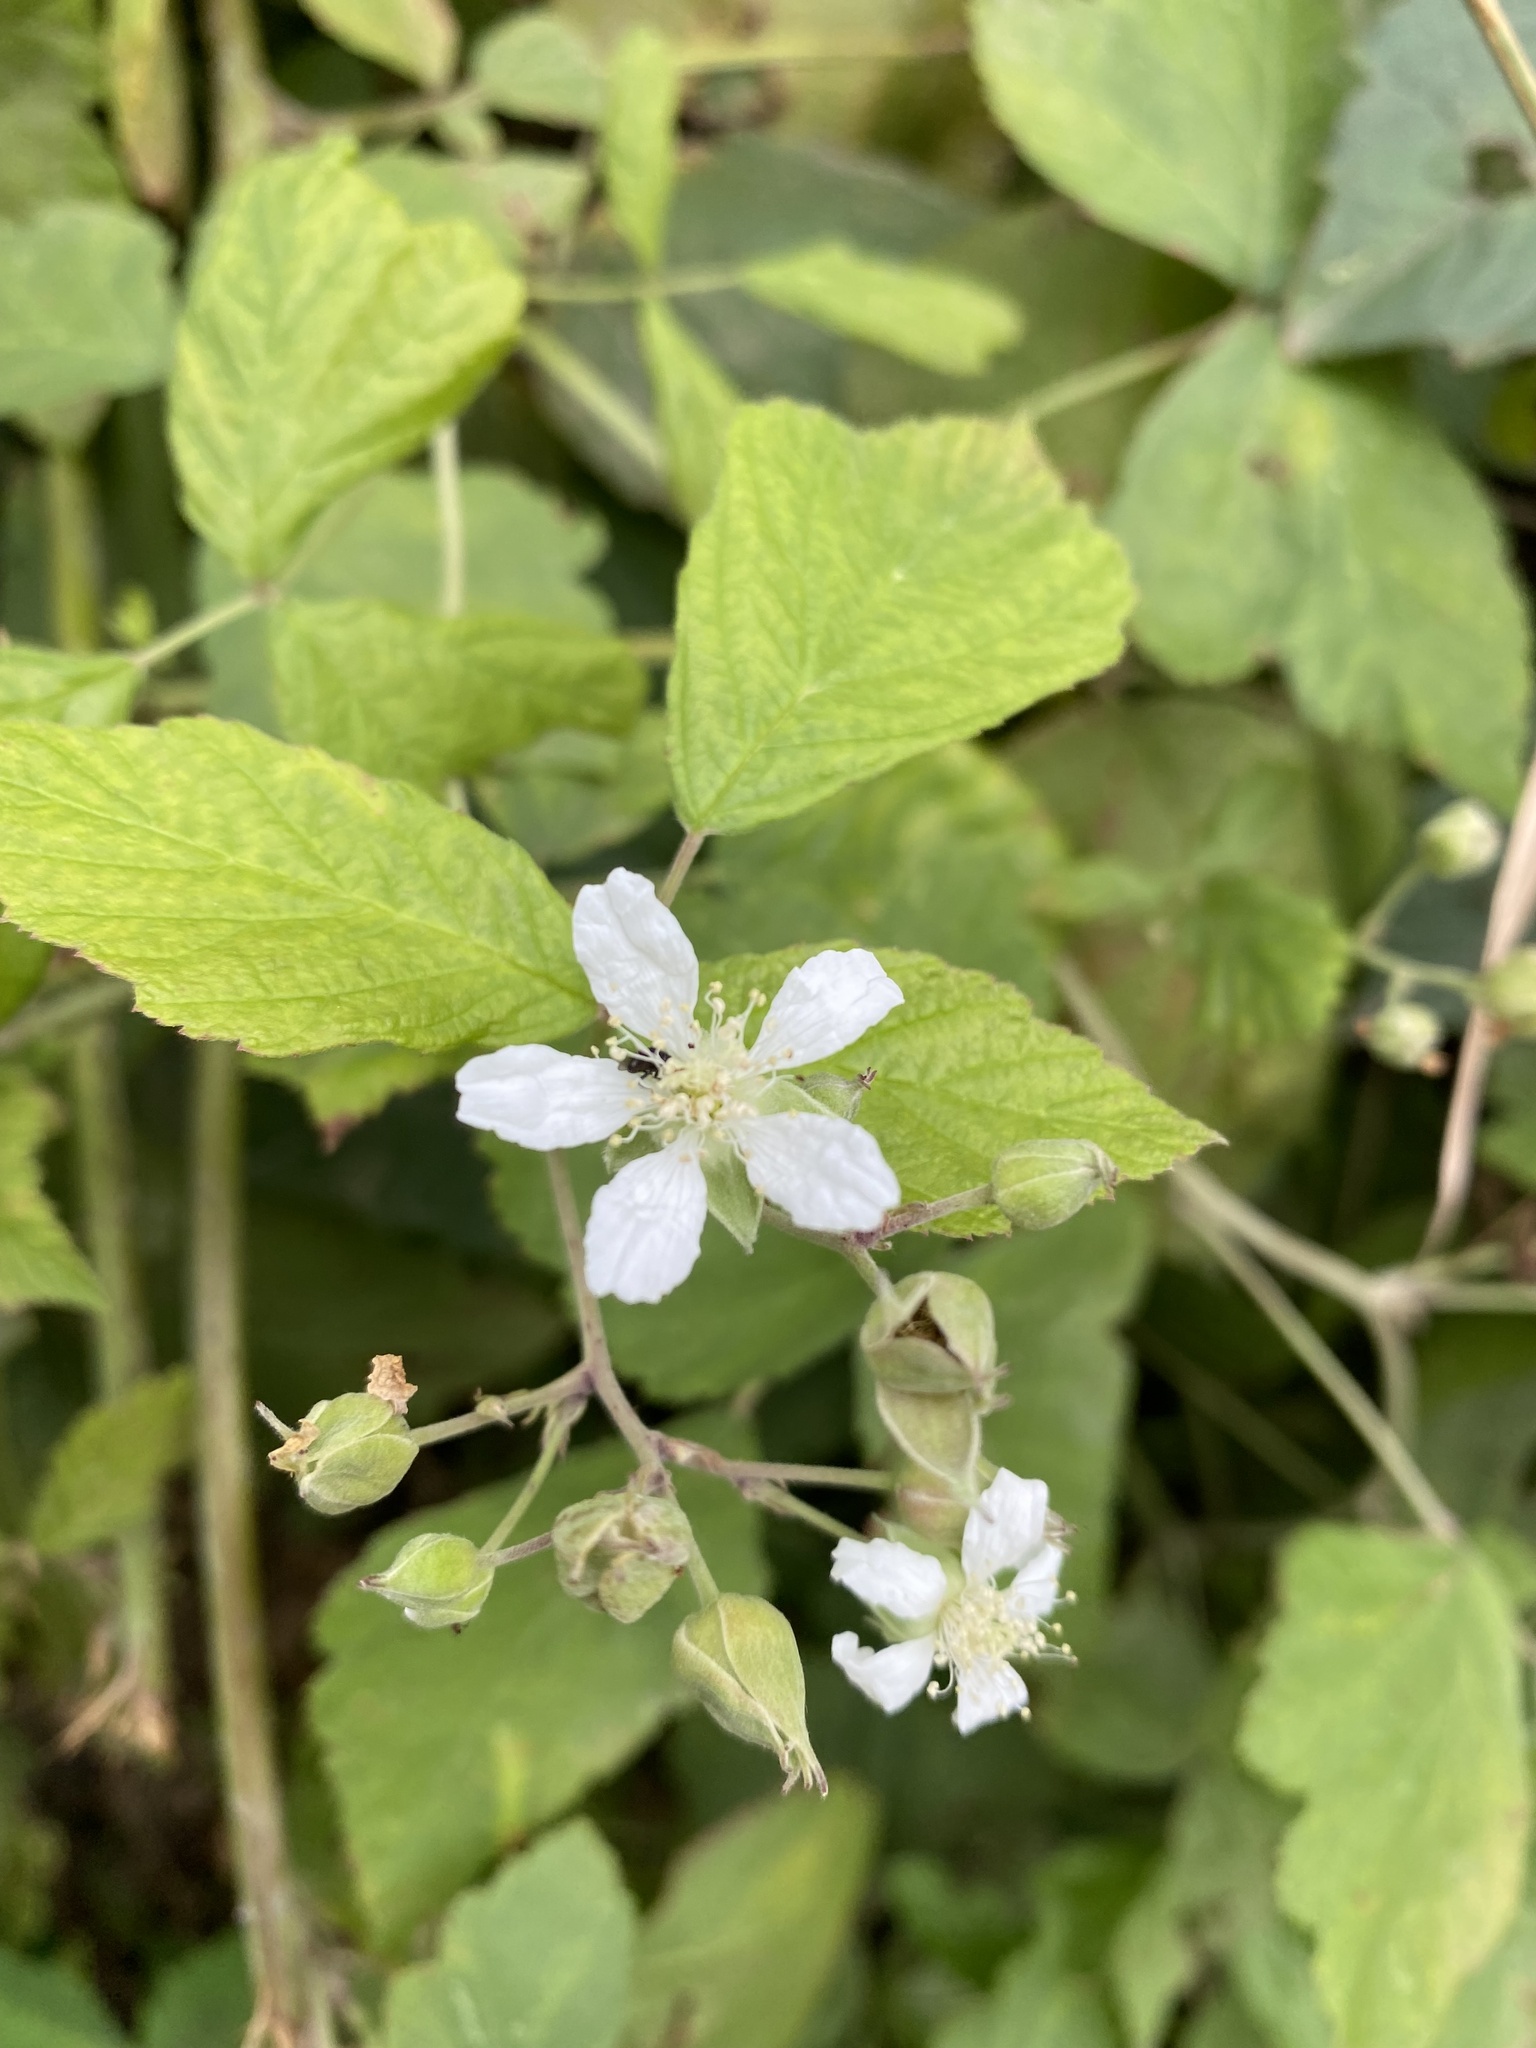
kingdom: Plantae
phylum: Tracheophyta
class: Magnoliopsida
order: Rosales
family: Rosaceae
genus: Rubus
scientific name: Rubus caesius
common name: Dewberry
